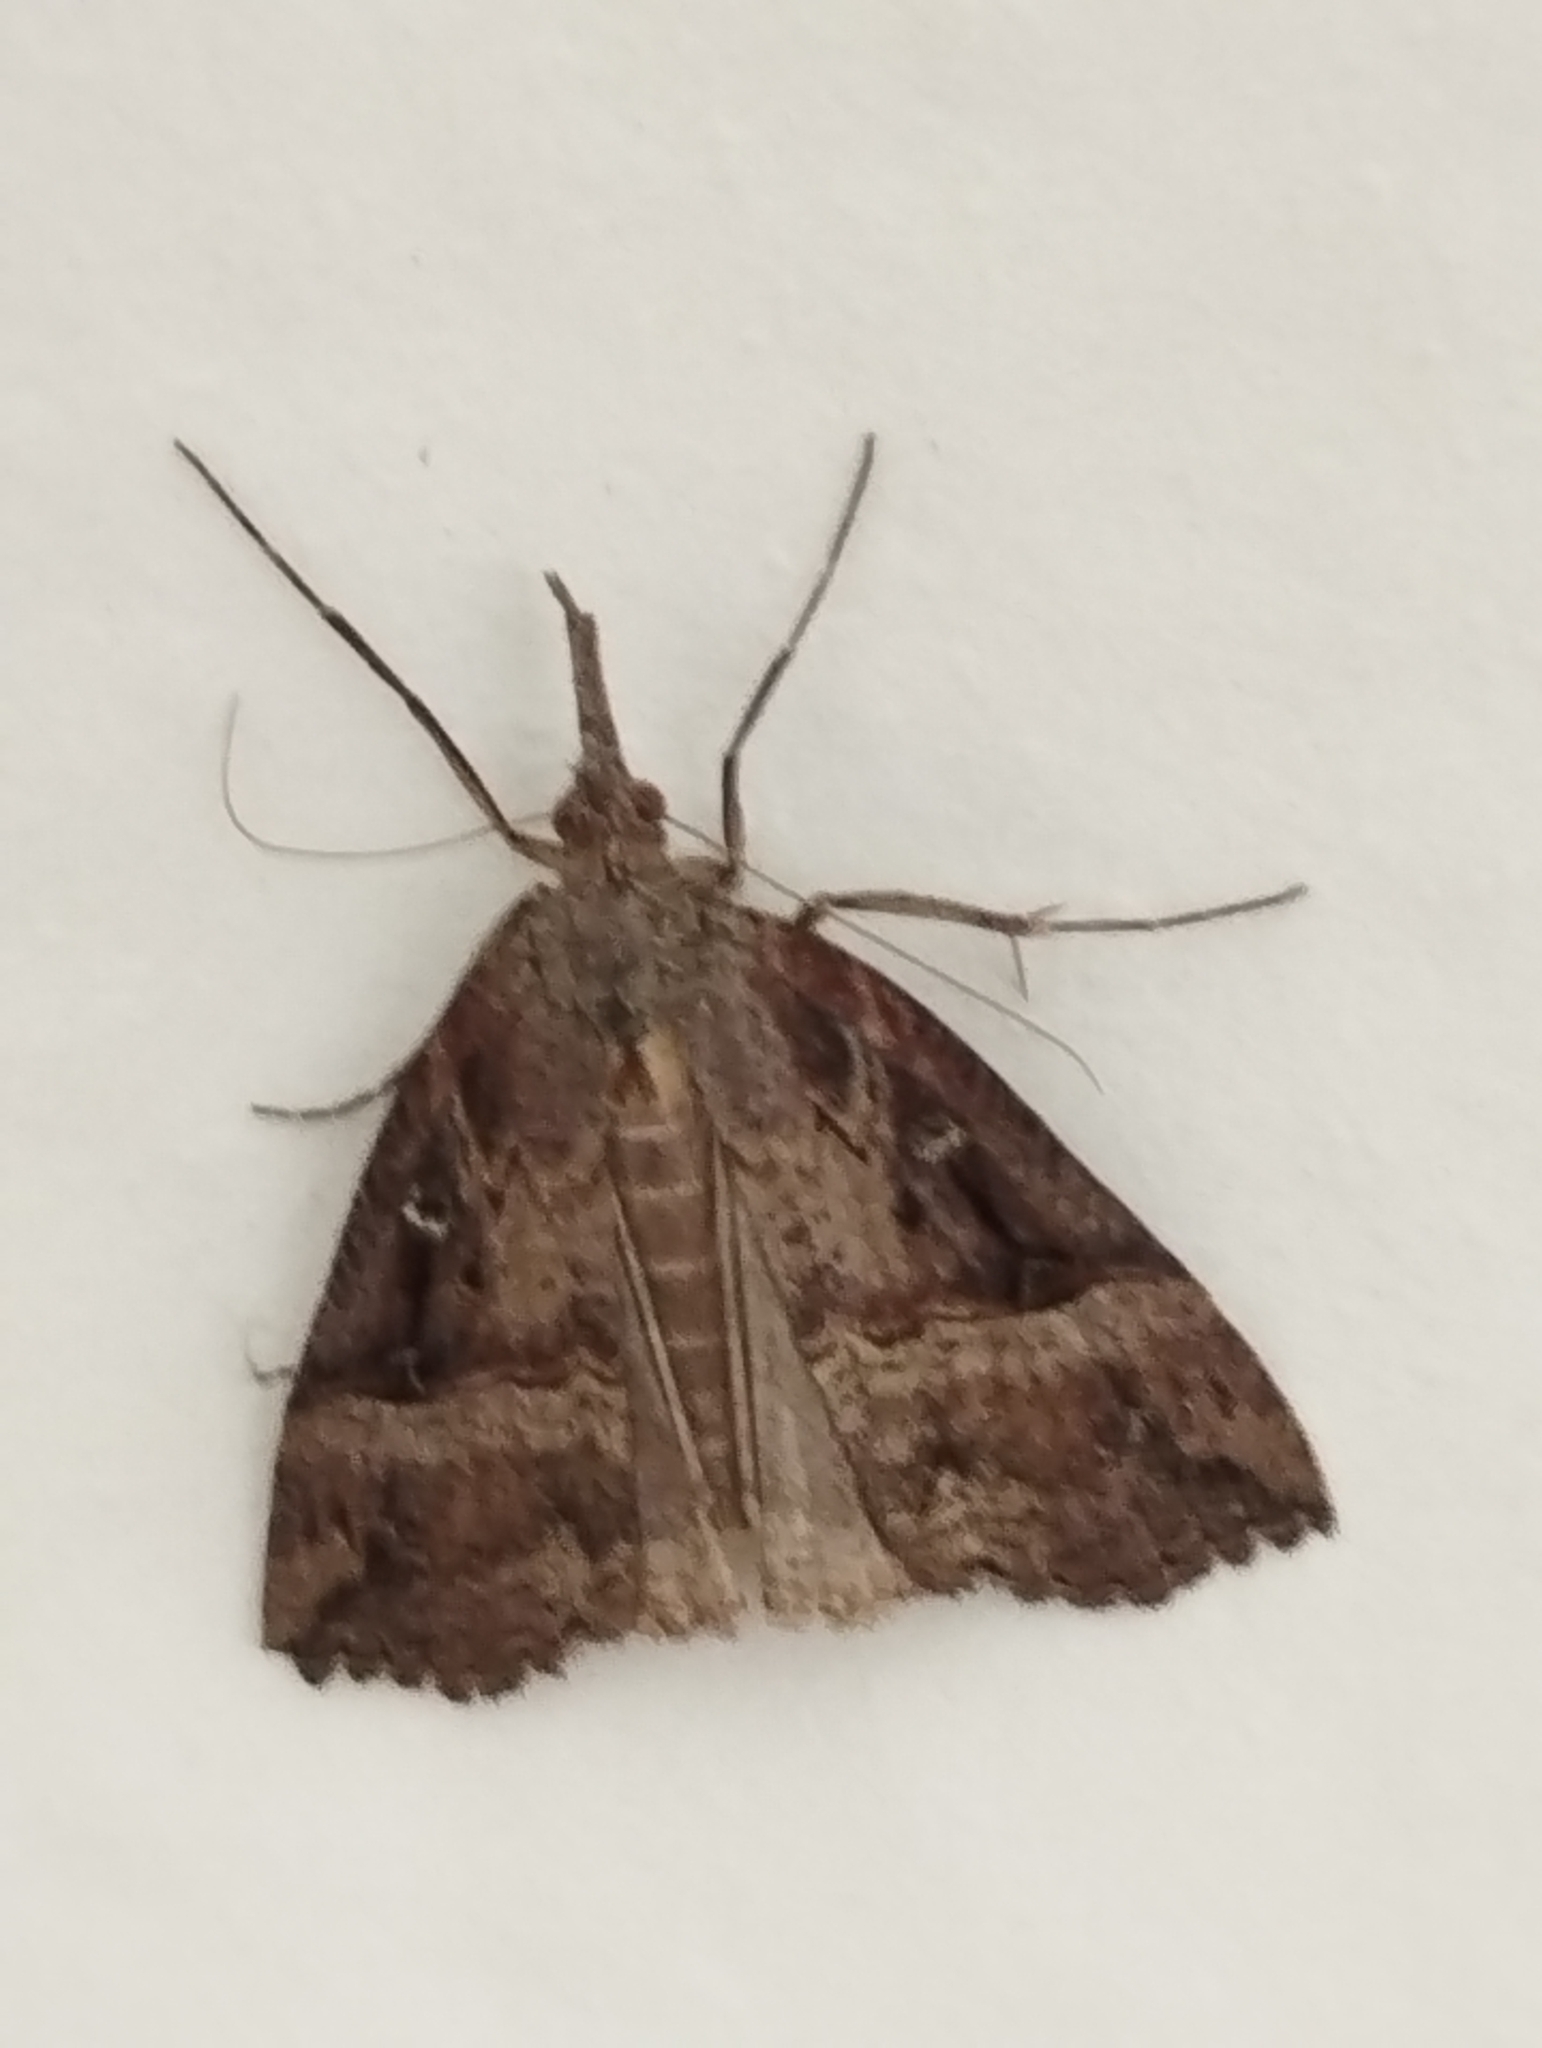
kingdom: Animalia
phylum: Arthropoda
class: Insecta
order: Lepidoptera
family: Erebidae
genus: Hypena
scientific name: Hypena rostralis
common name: Buttoned snout
